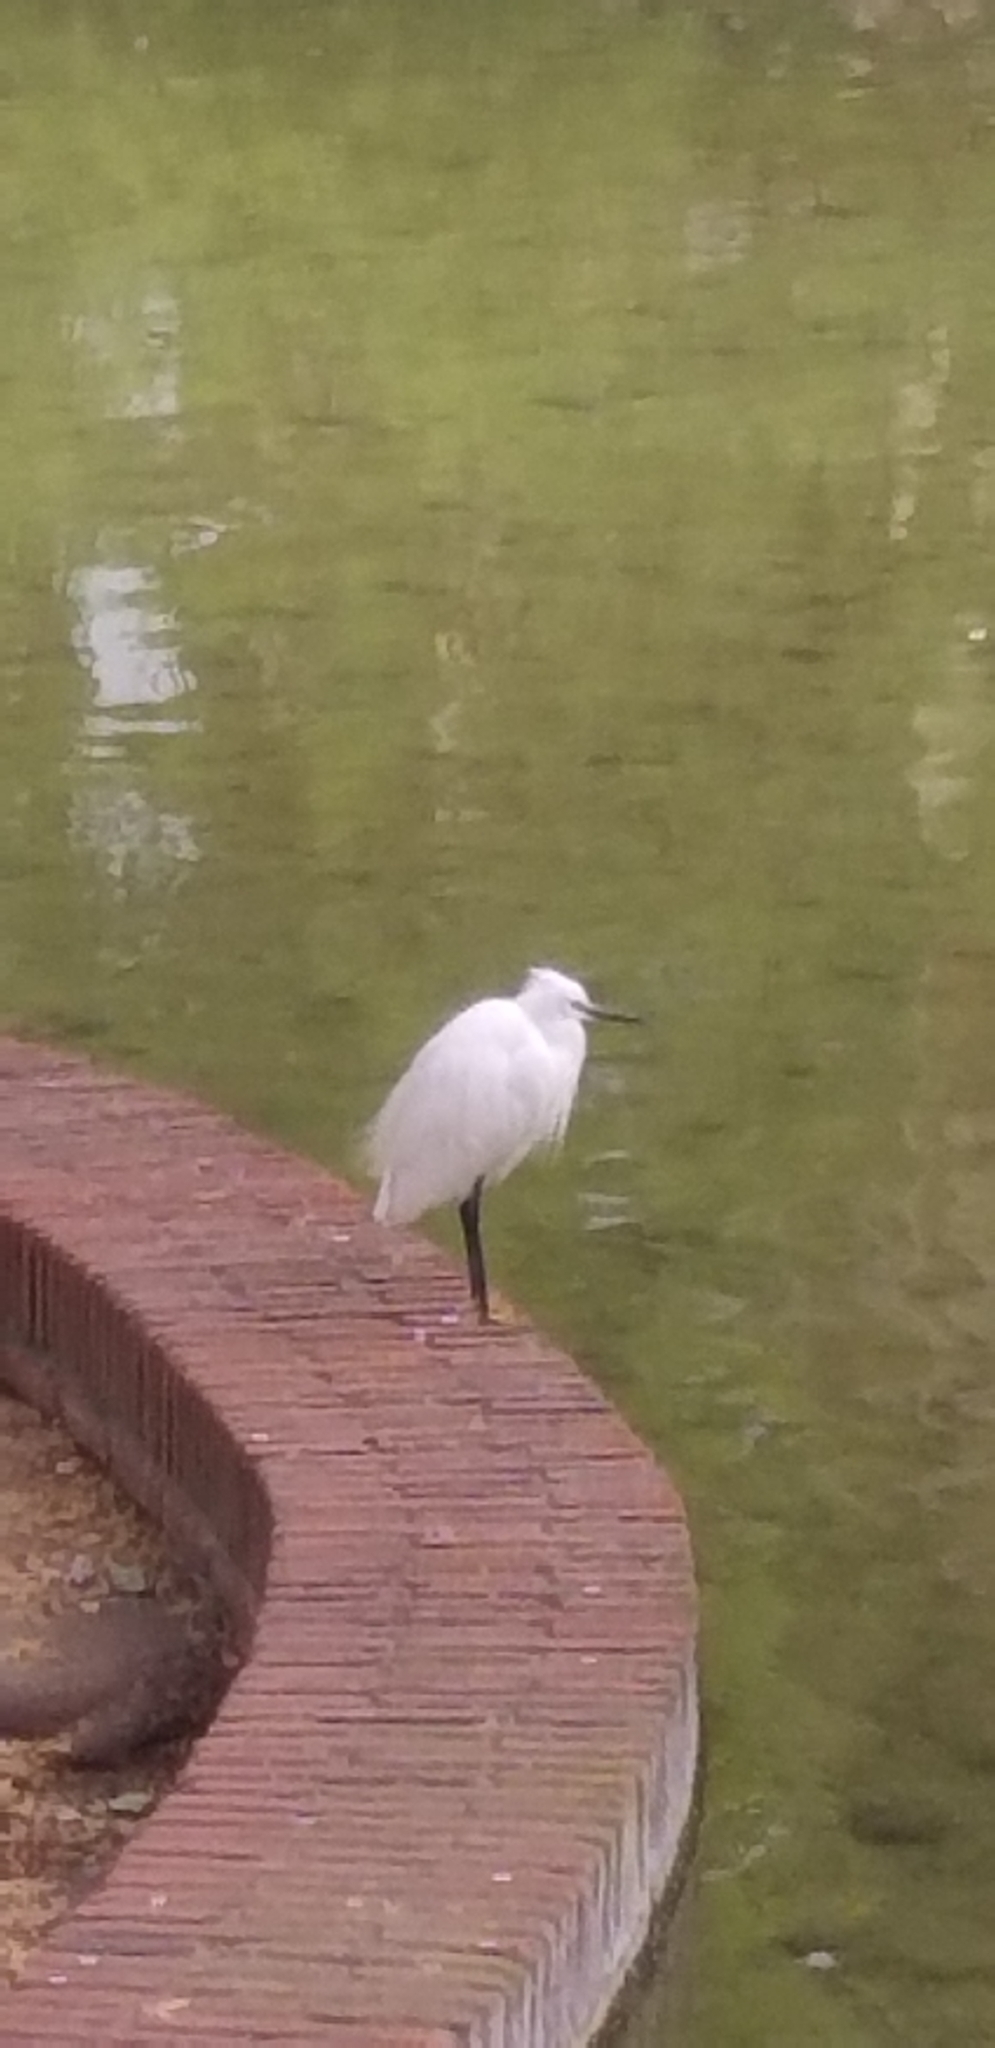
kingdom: Animalia
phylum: Chordata
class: Aves
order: Pelecaniformes
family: Ardeidae
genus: Egretta
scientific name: Egretta garzetta
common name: Little egret
